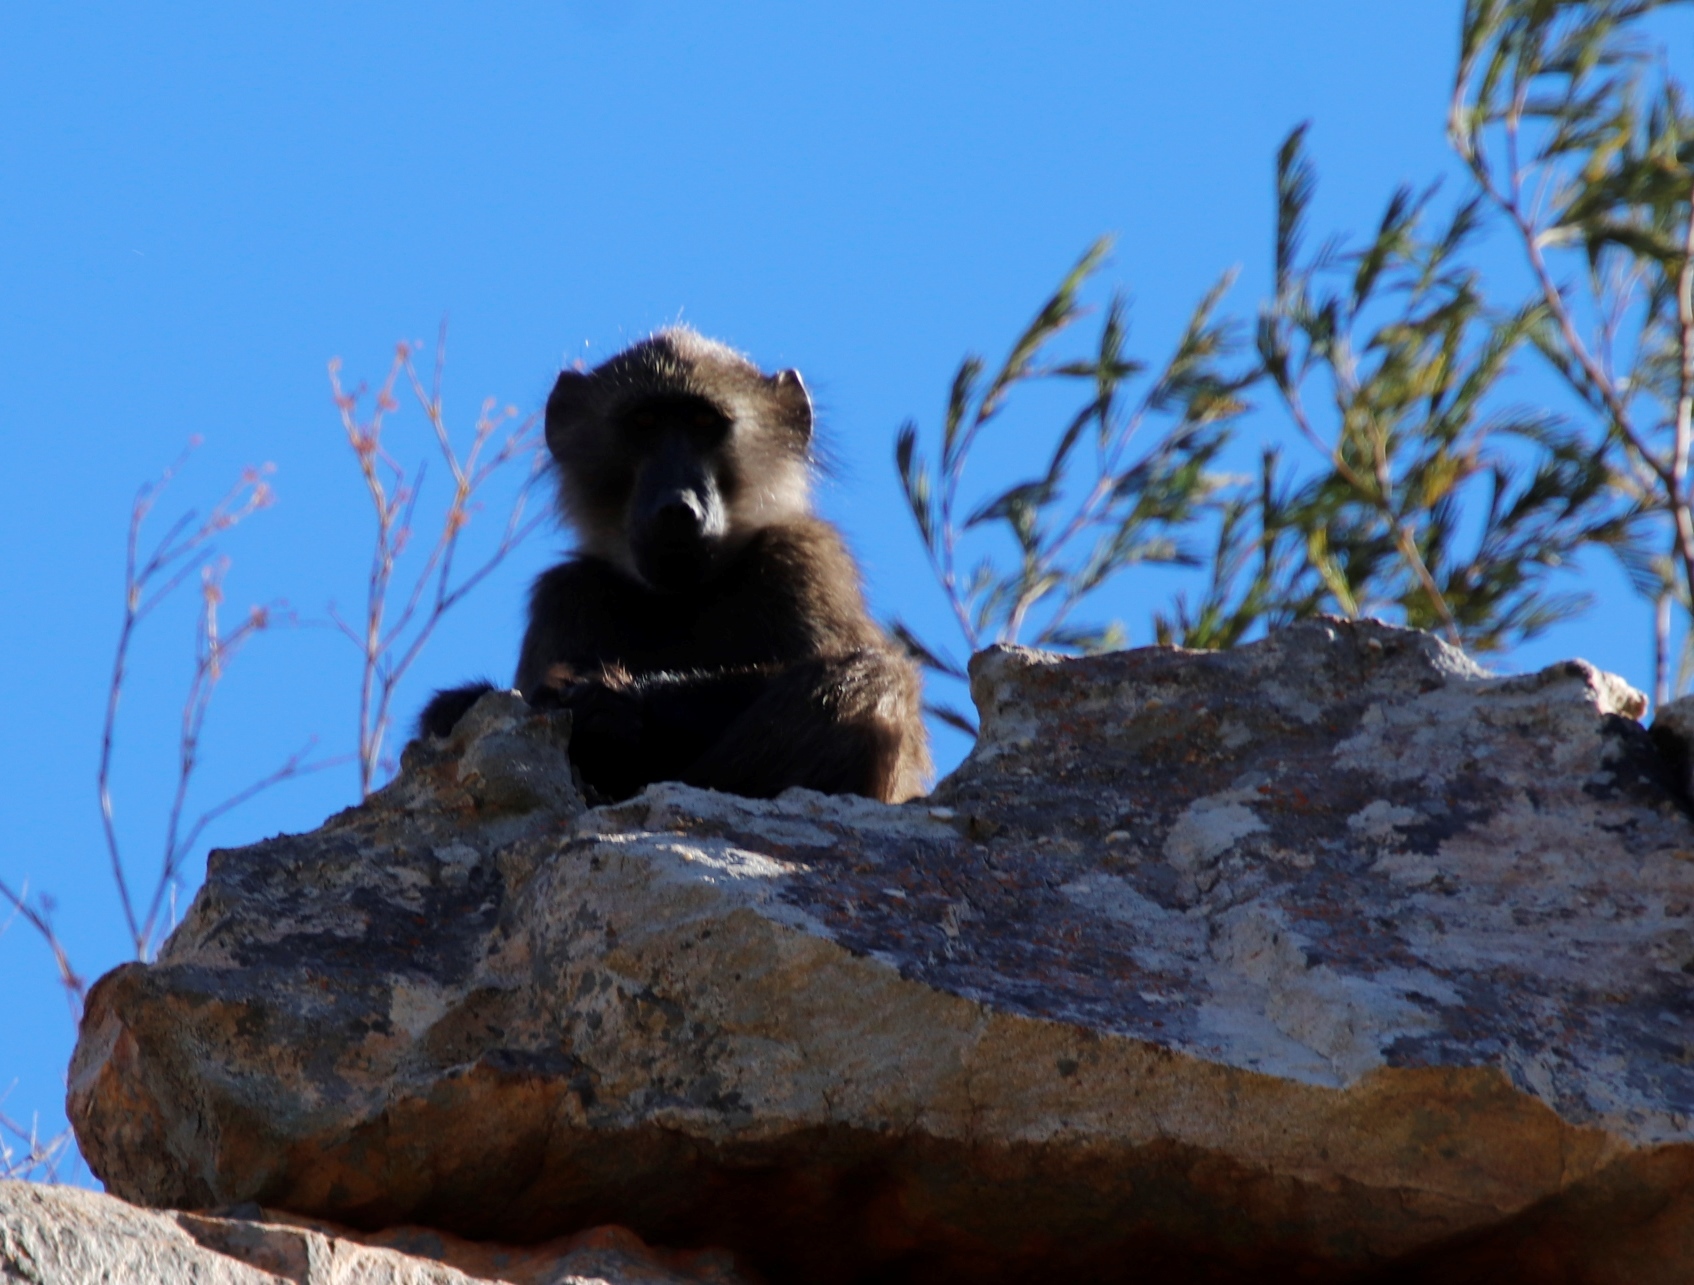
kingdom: Animalia
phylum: Chordata
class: Mammalia
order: Primates
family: Cercopithecidae
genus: Papio
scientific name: Papio ursinus
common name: Chacma baboon
